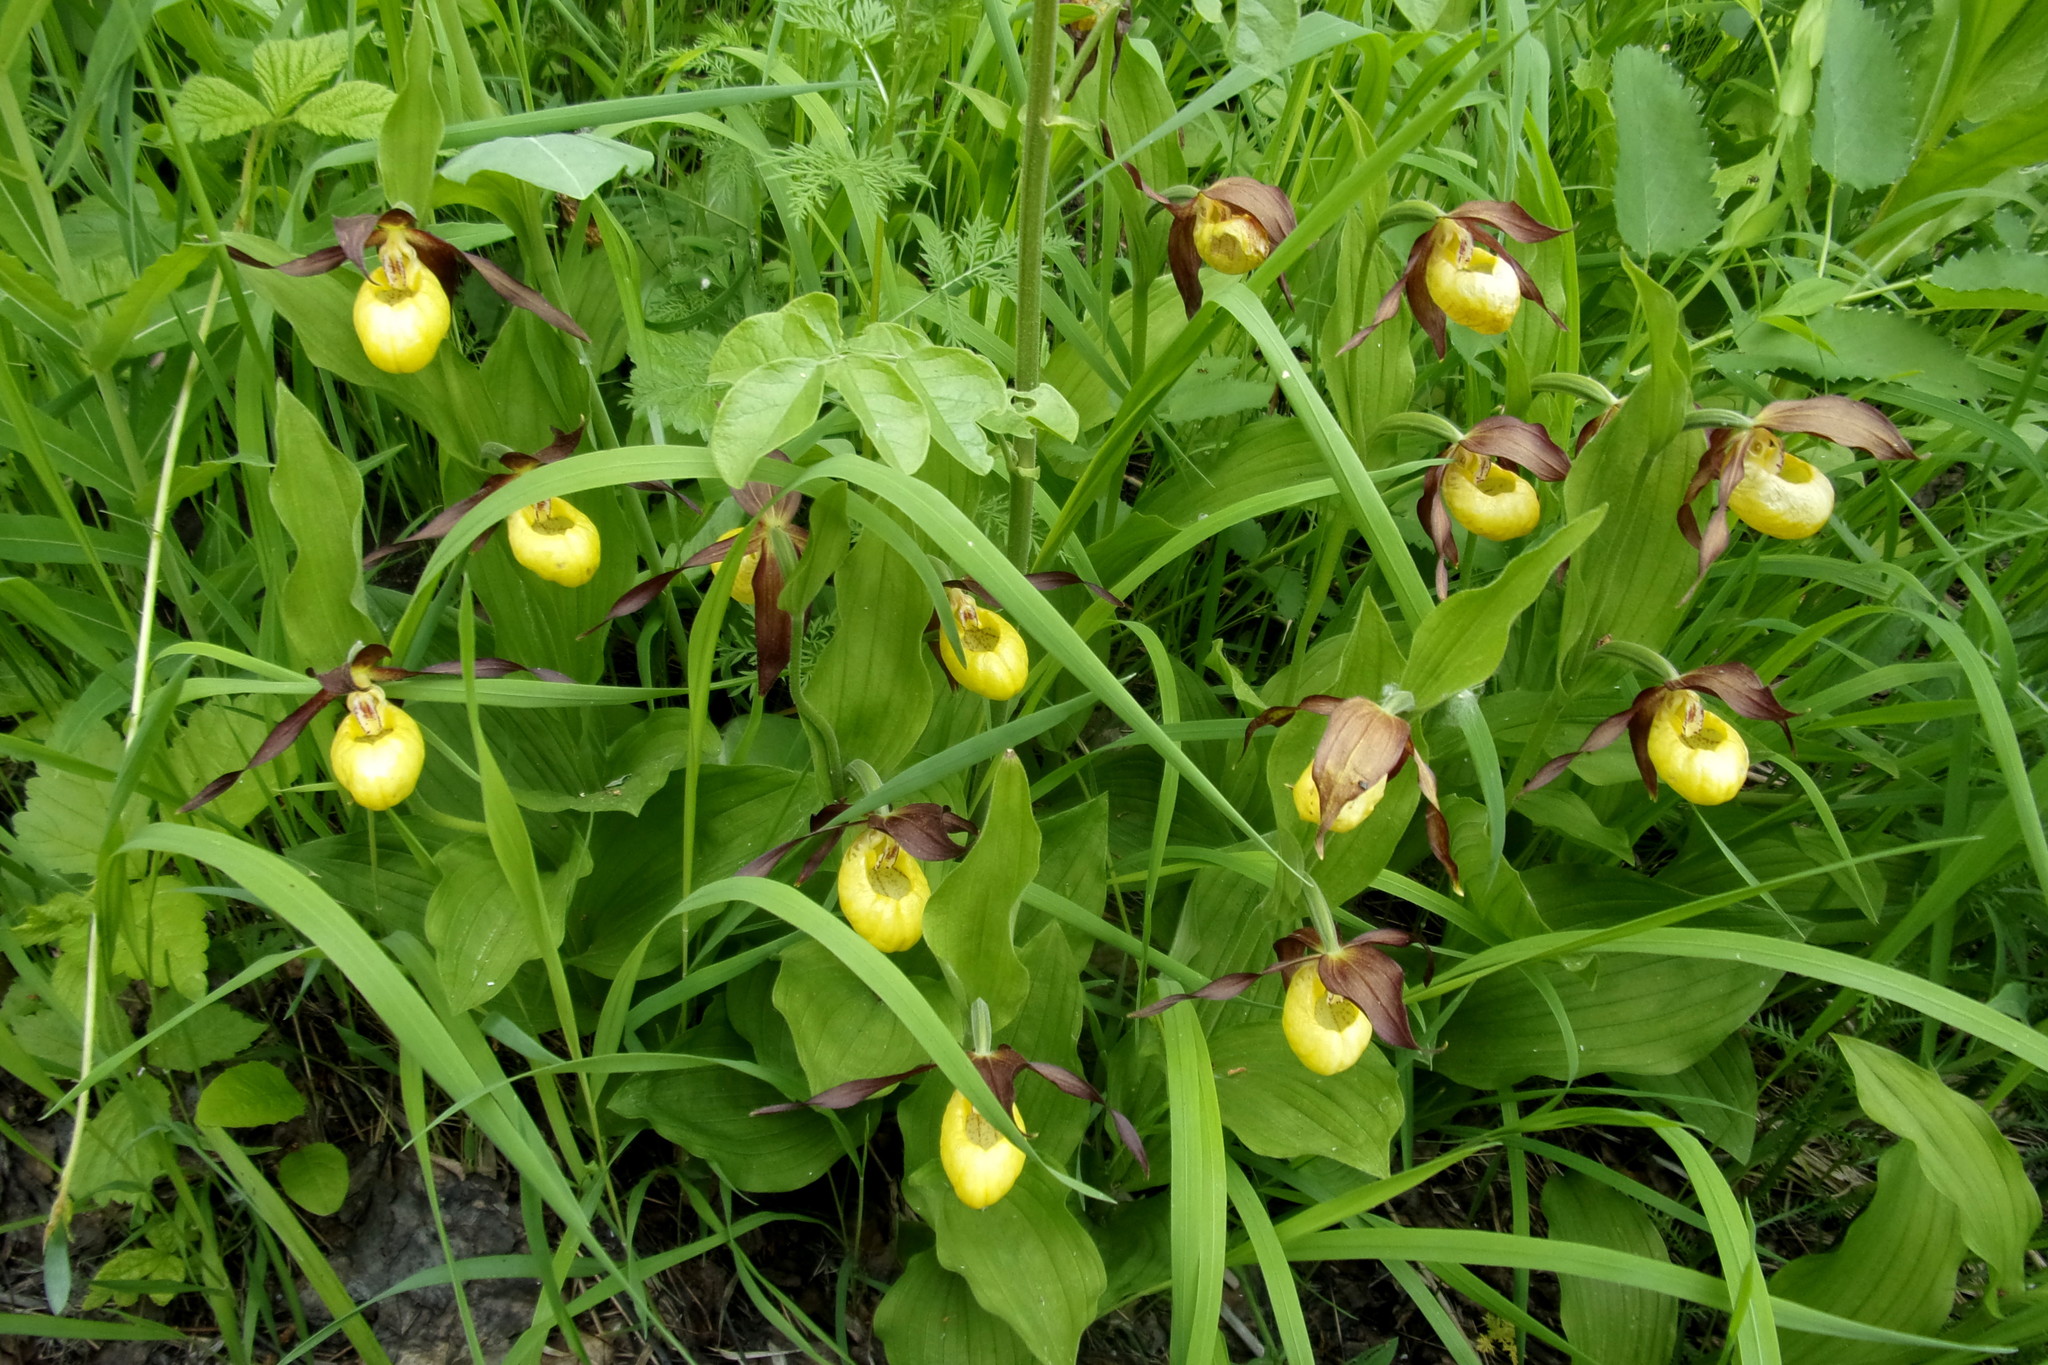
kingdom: Plantae
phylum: Tracheophyta
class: Liliopsida
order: Asparagales
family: Orchidaceae
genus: Cypripedium
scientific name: Cypripedium calceolus
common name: Lady's-slipper
